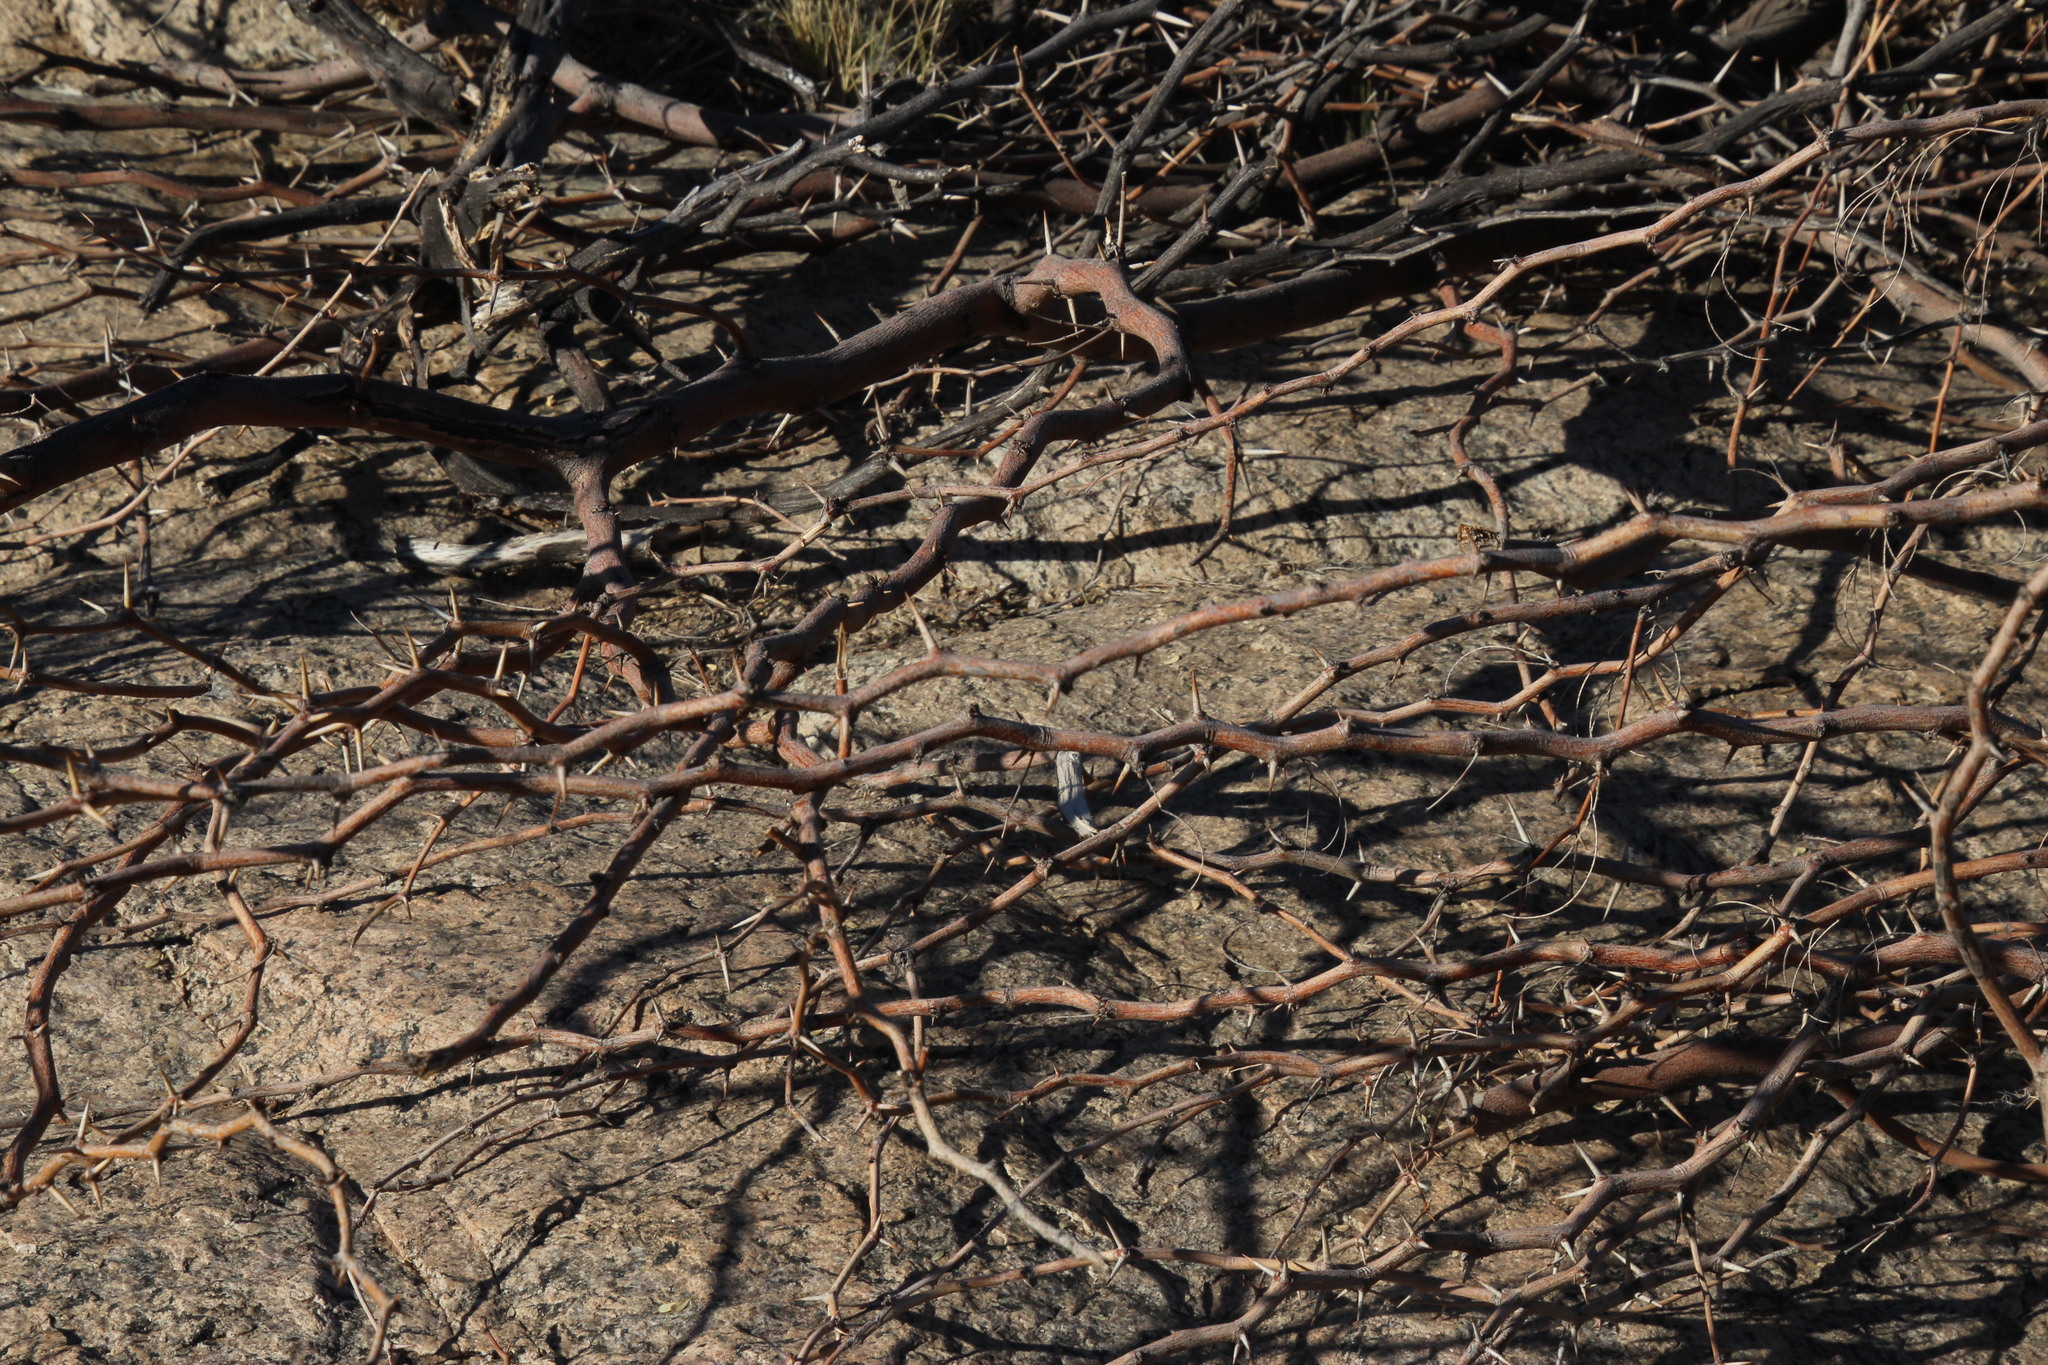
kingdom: Plantae
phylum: Tracheophyta
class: Magnoliopsida
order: Fabales
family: Fabaceae
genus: Prosopis
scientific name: Prosopis glandulosa
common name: Honey mesquite
